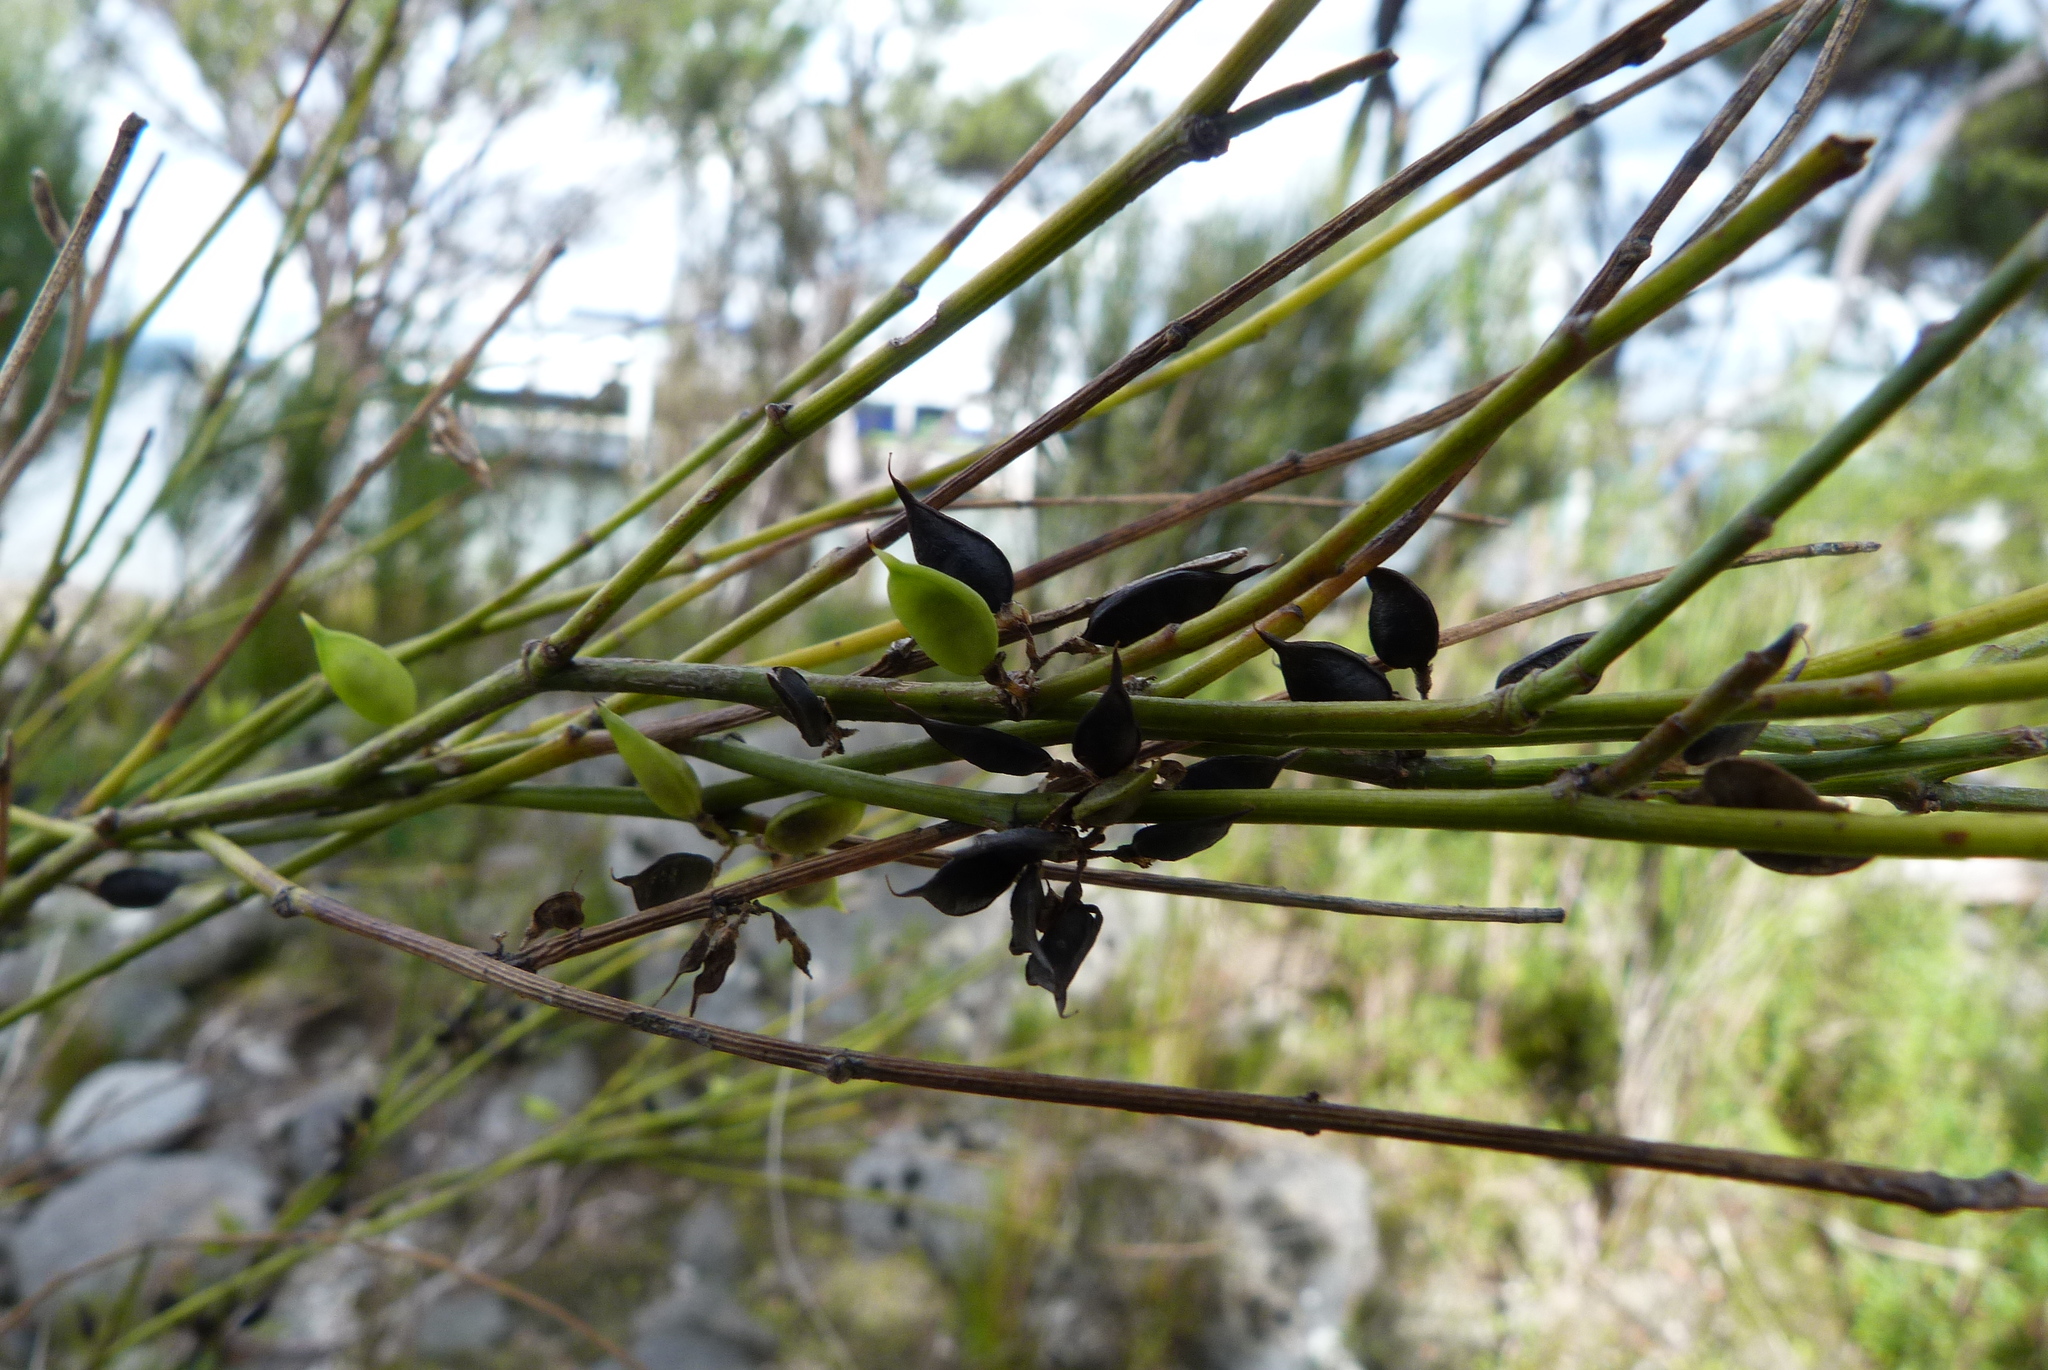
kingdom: Plantae
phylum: Tracheophyta
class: Magnoliopsida
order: Fabales
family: Fabaceae
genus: Carmichaelia
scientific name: Carmichaelia australis
